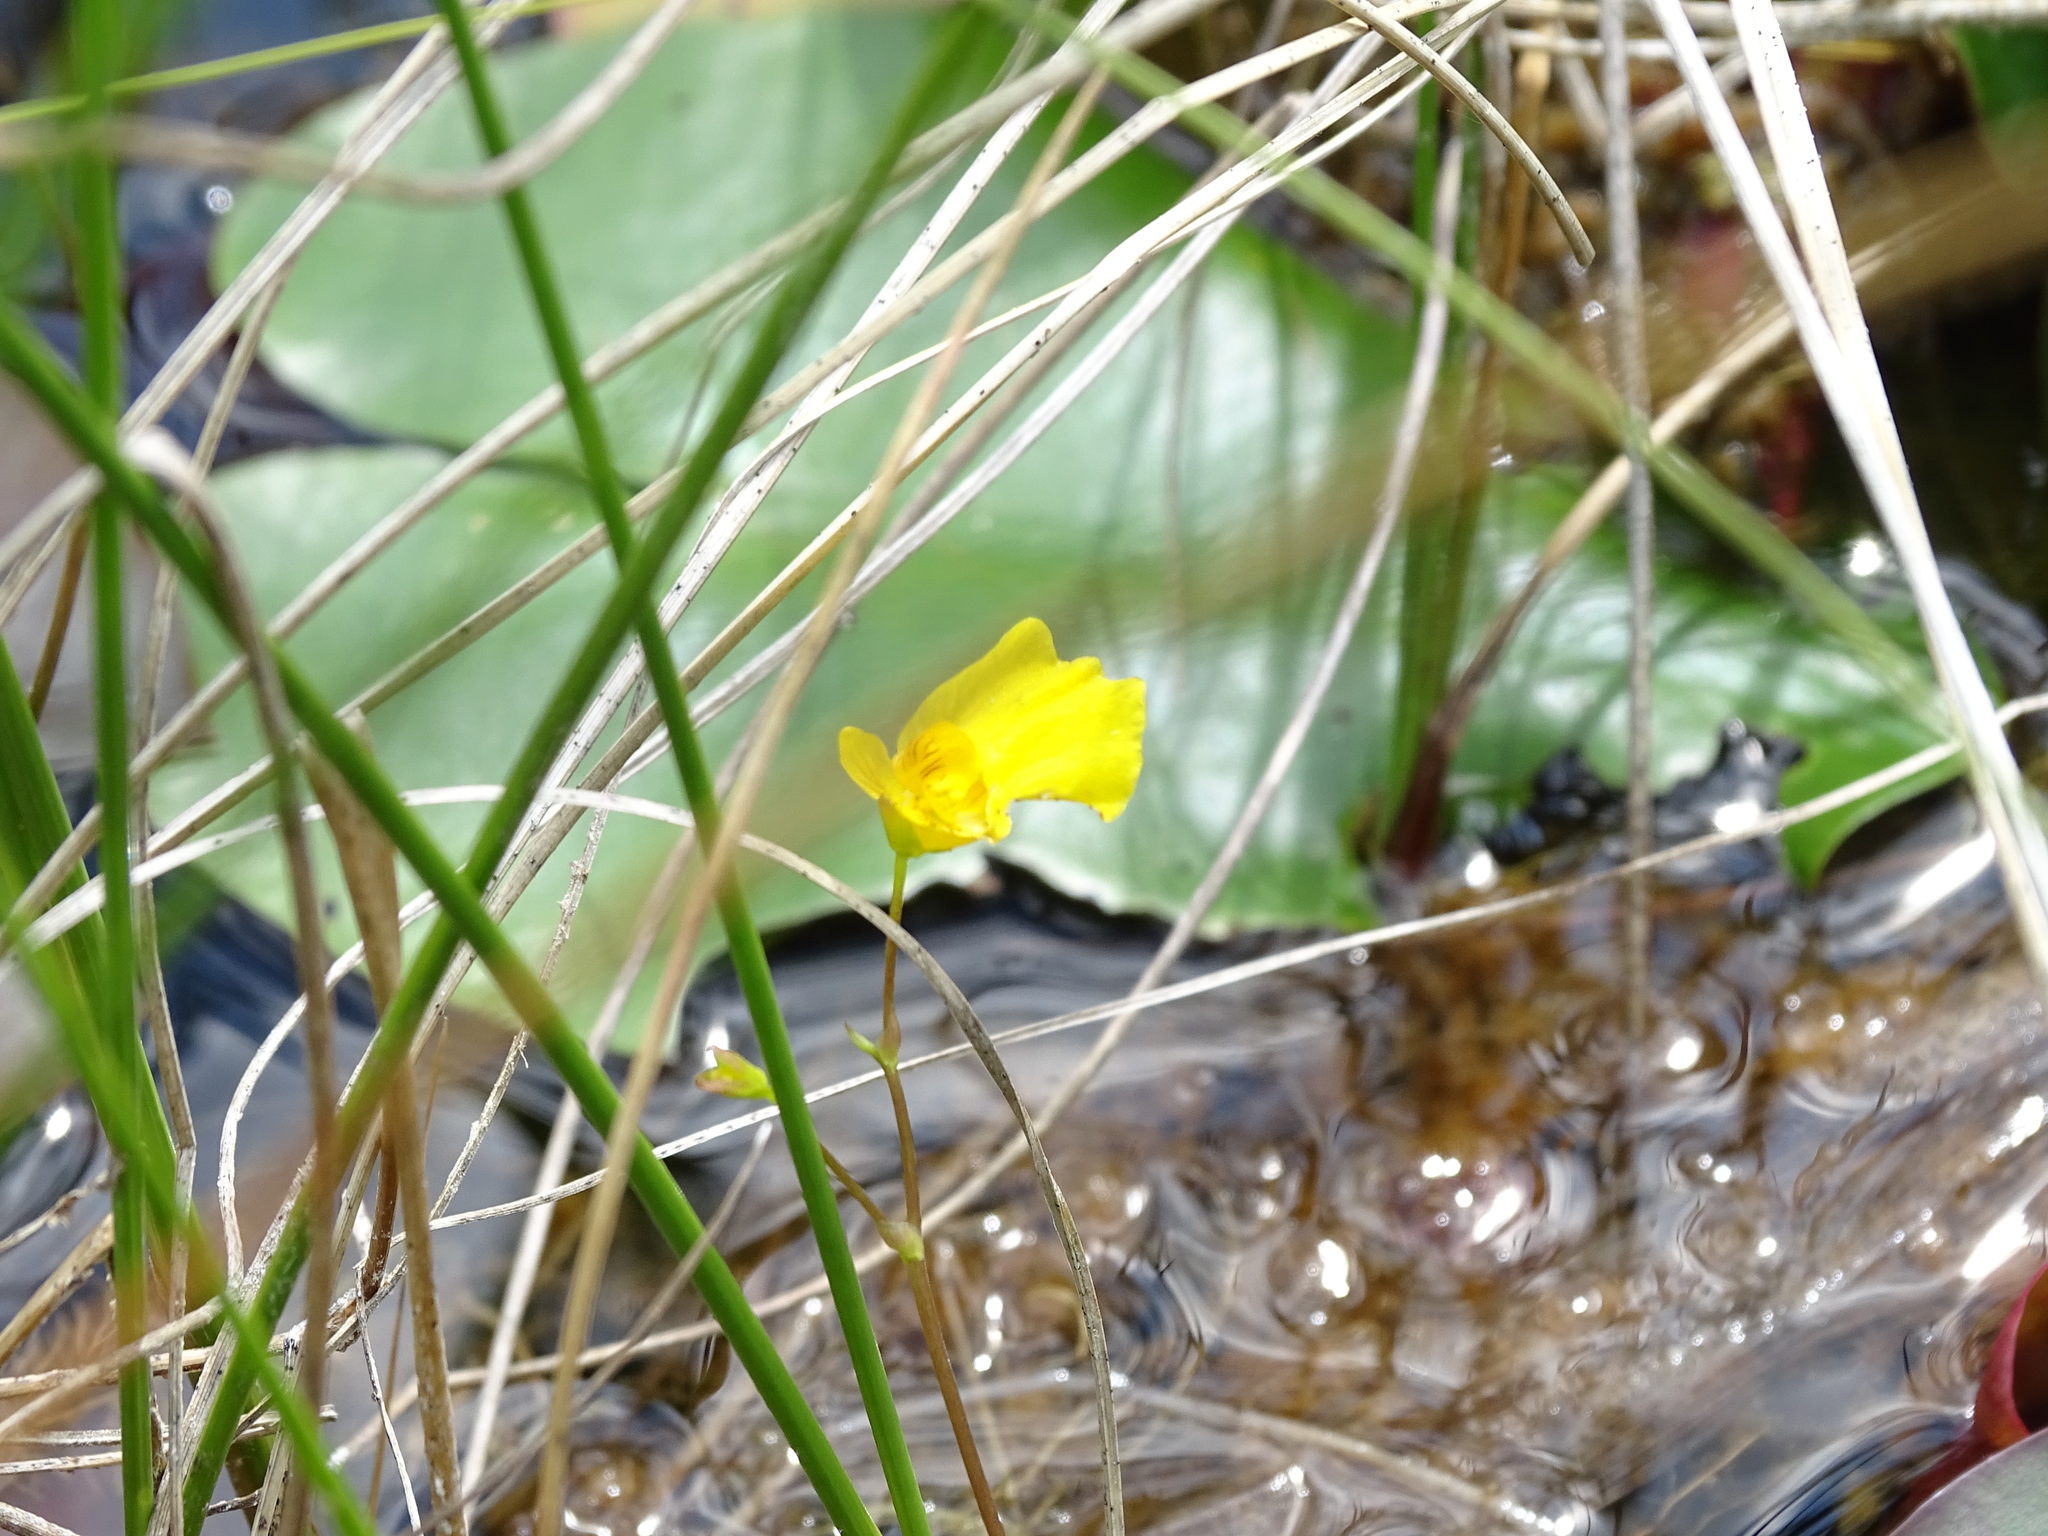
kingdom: Plantae
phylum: Tracheophyta
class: Magnoliopsida
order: Lamiales
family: Lentibulariaceae
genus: Utricularia
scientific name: Utricularia intermedia
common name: Intermediate bladderwort
